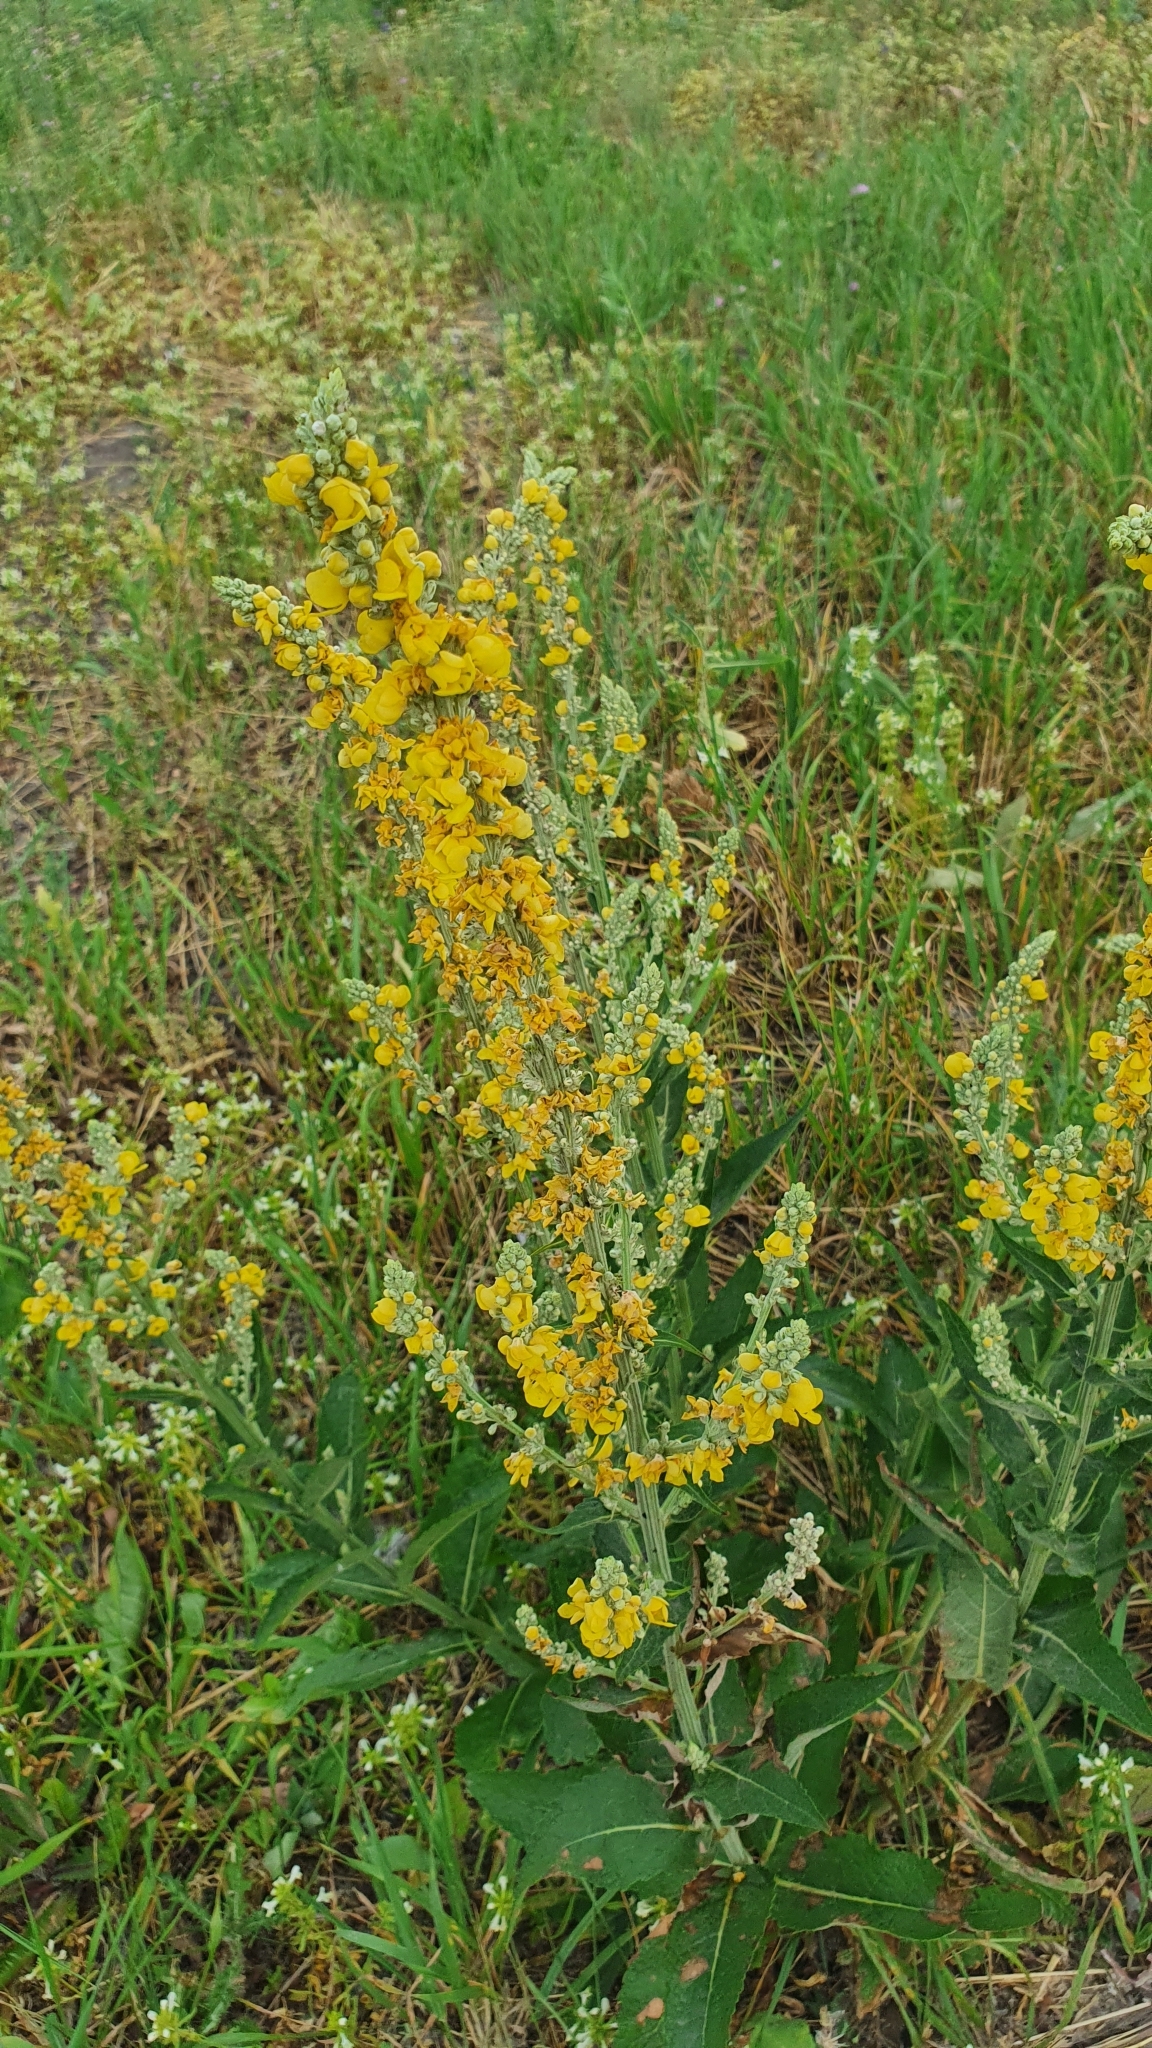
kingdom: Plantae
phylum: Tracheophyta
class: Magnoliopsida
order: Lamiales
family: Scrophulariaceae
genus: Verbascum
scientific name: Verbascum lychnitis
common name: White mullein
